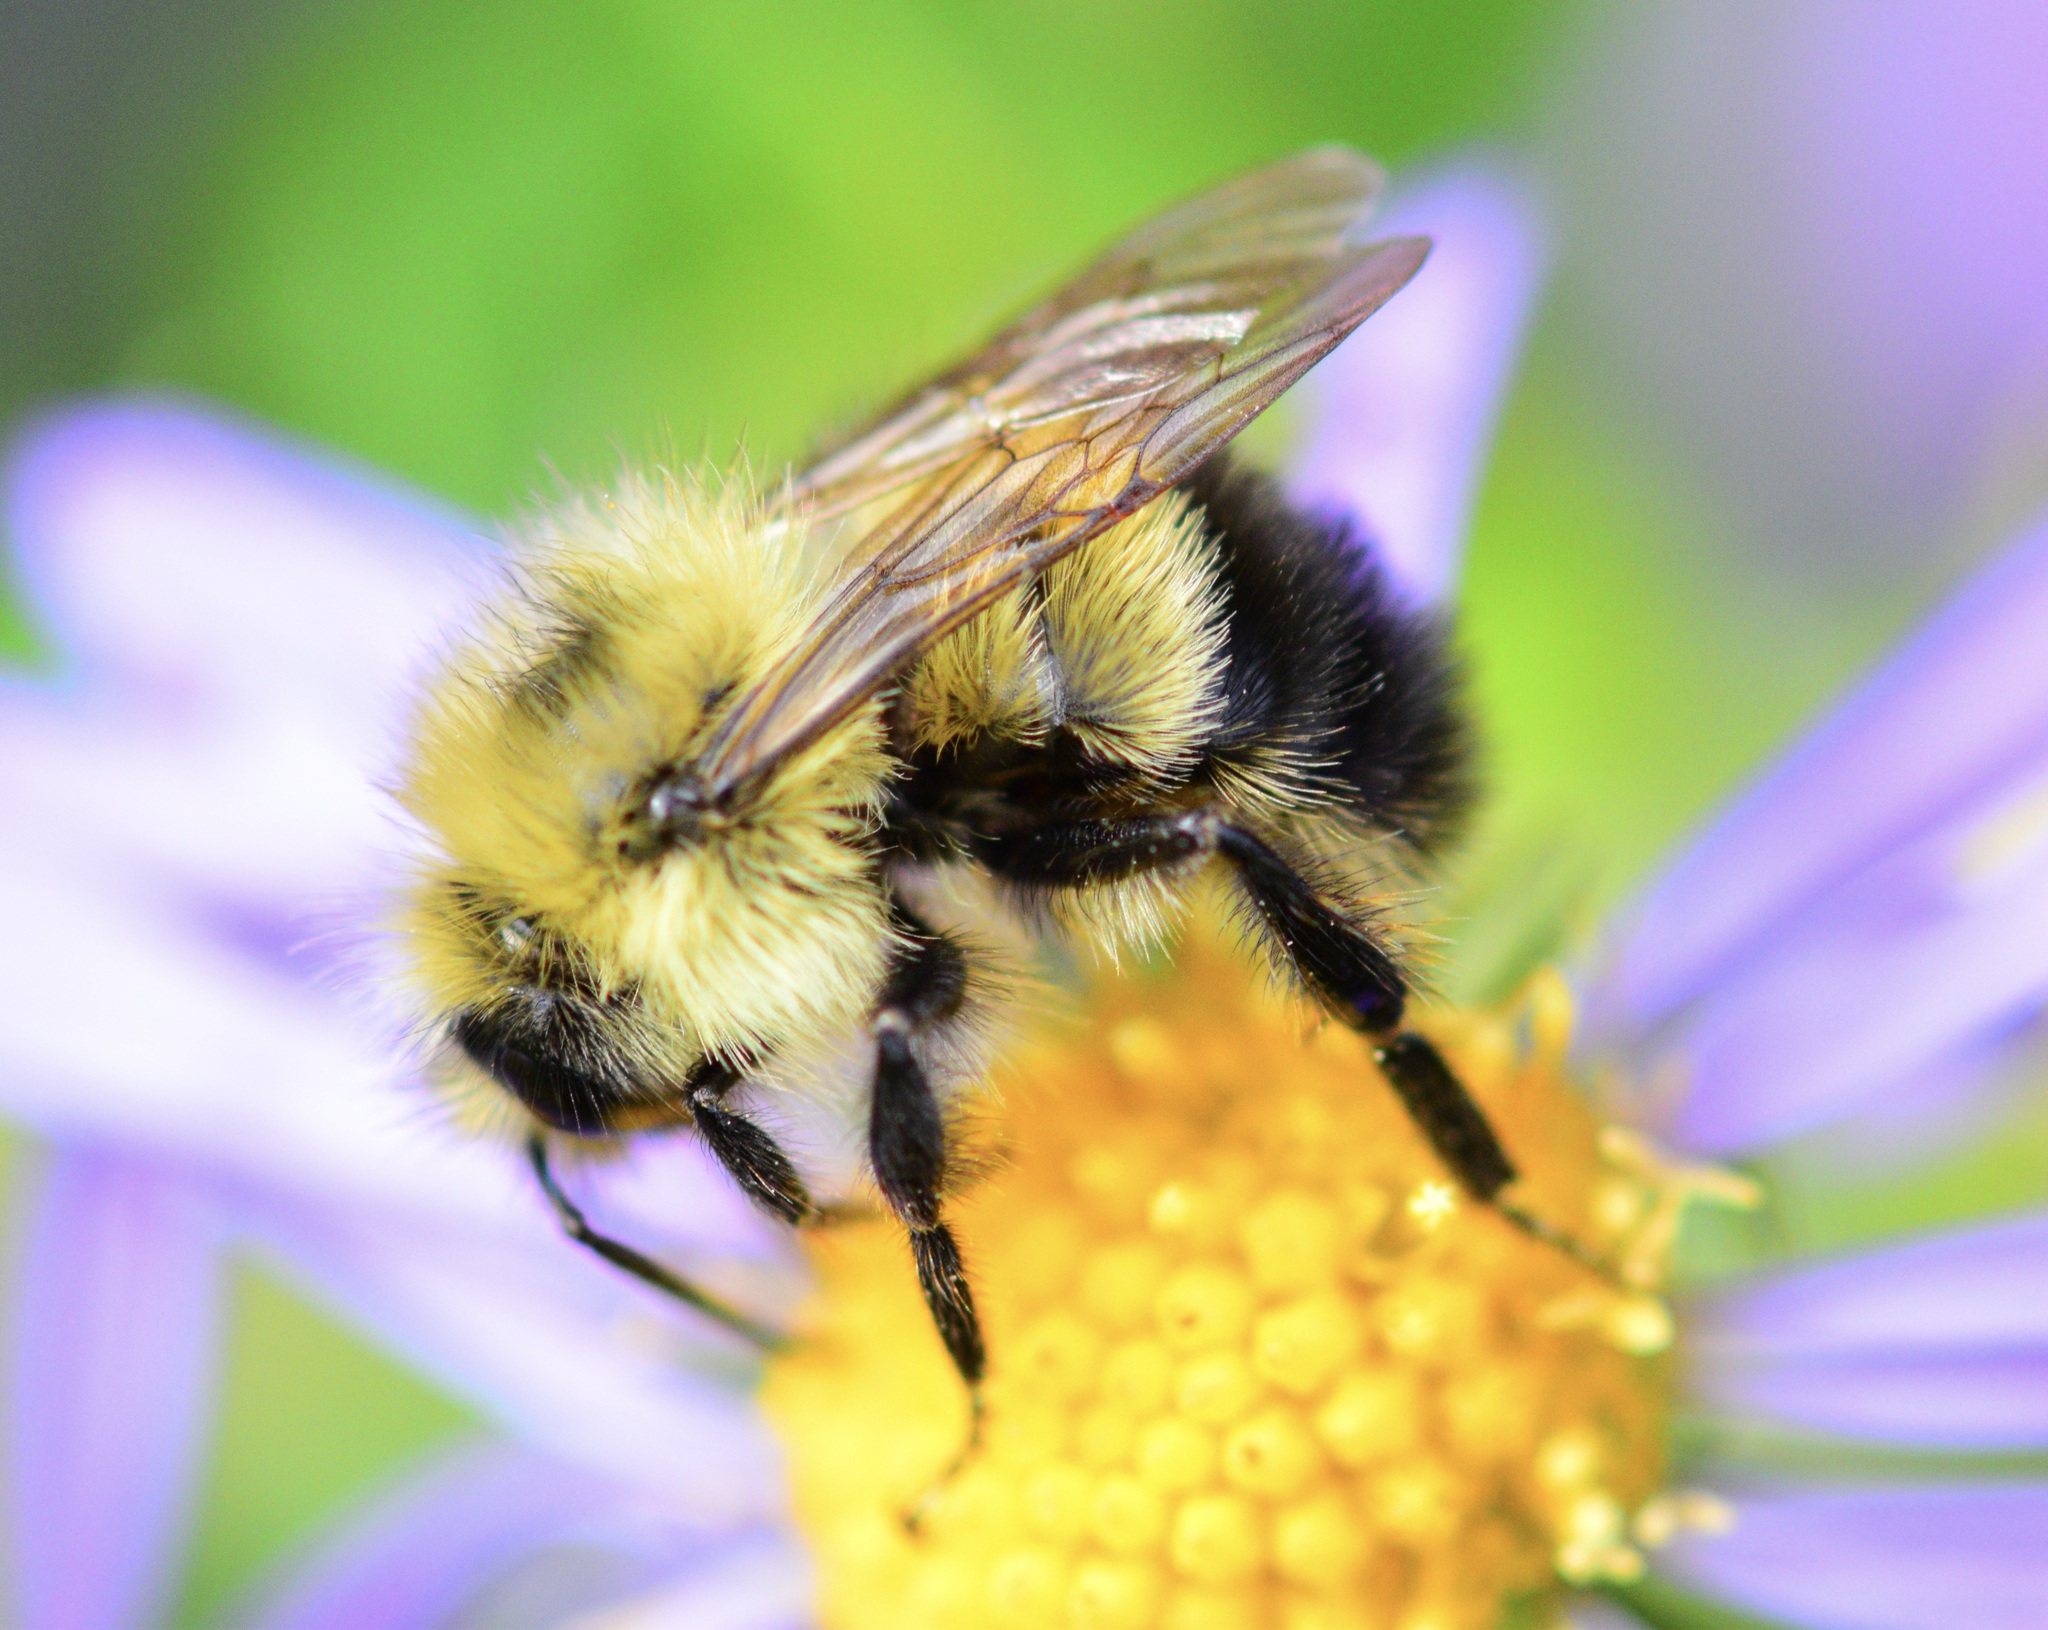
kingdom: Animalia
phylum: Arthropoda
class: Insecta
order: Hymenoptera
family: Apidae
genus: Pyrobombus
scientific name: Pyrobombus
